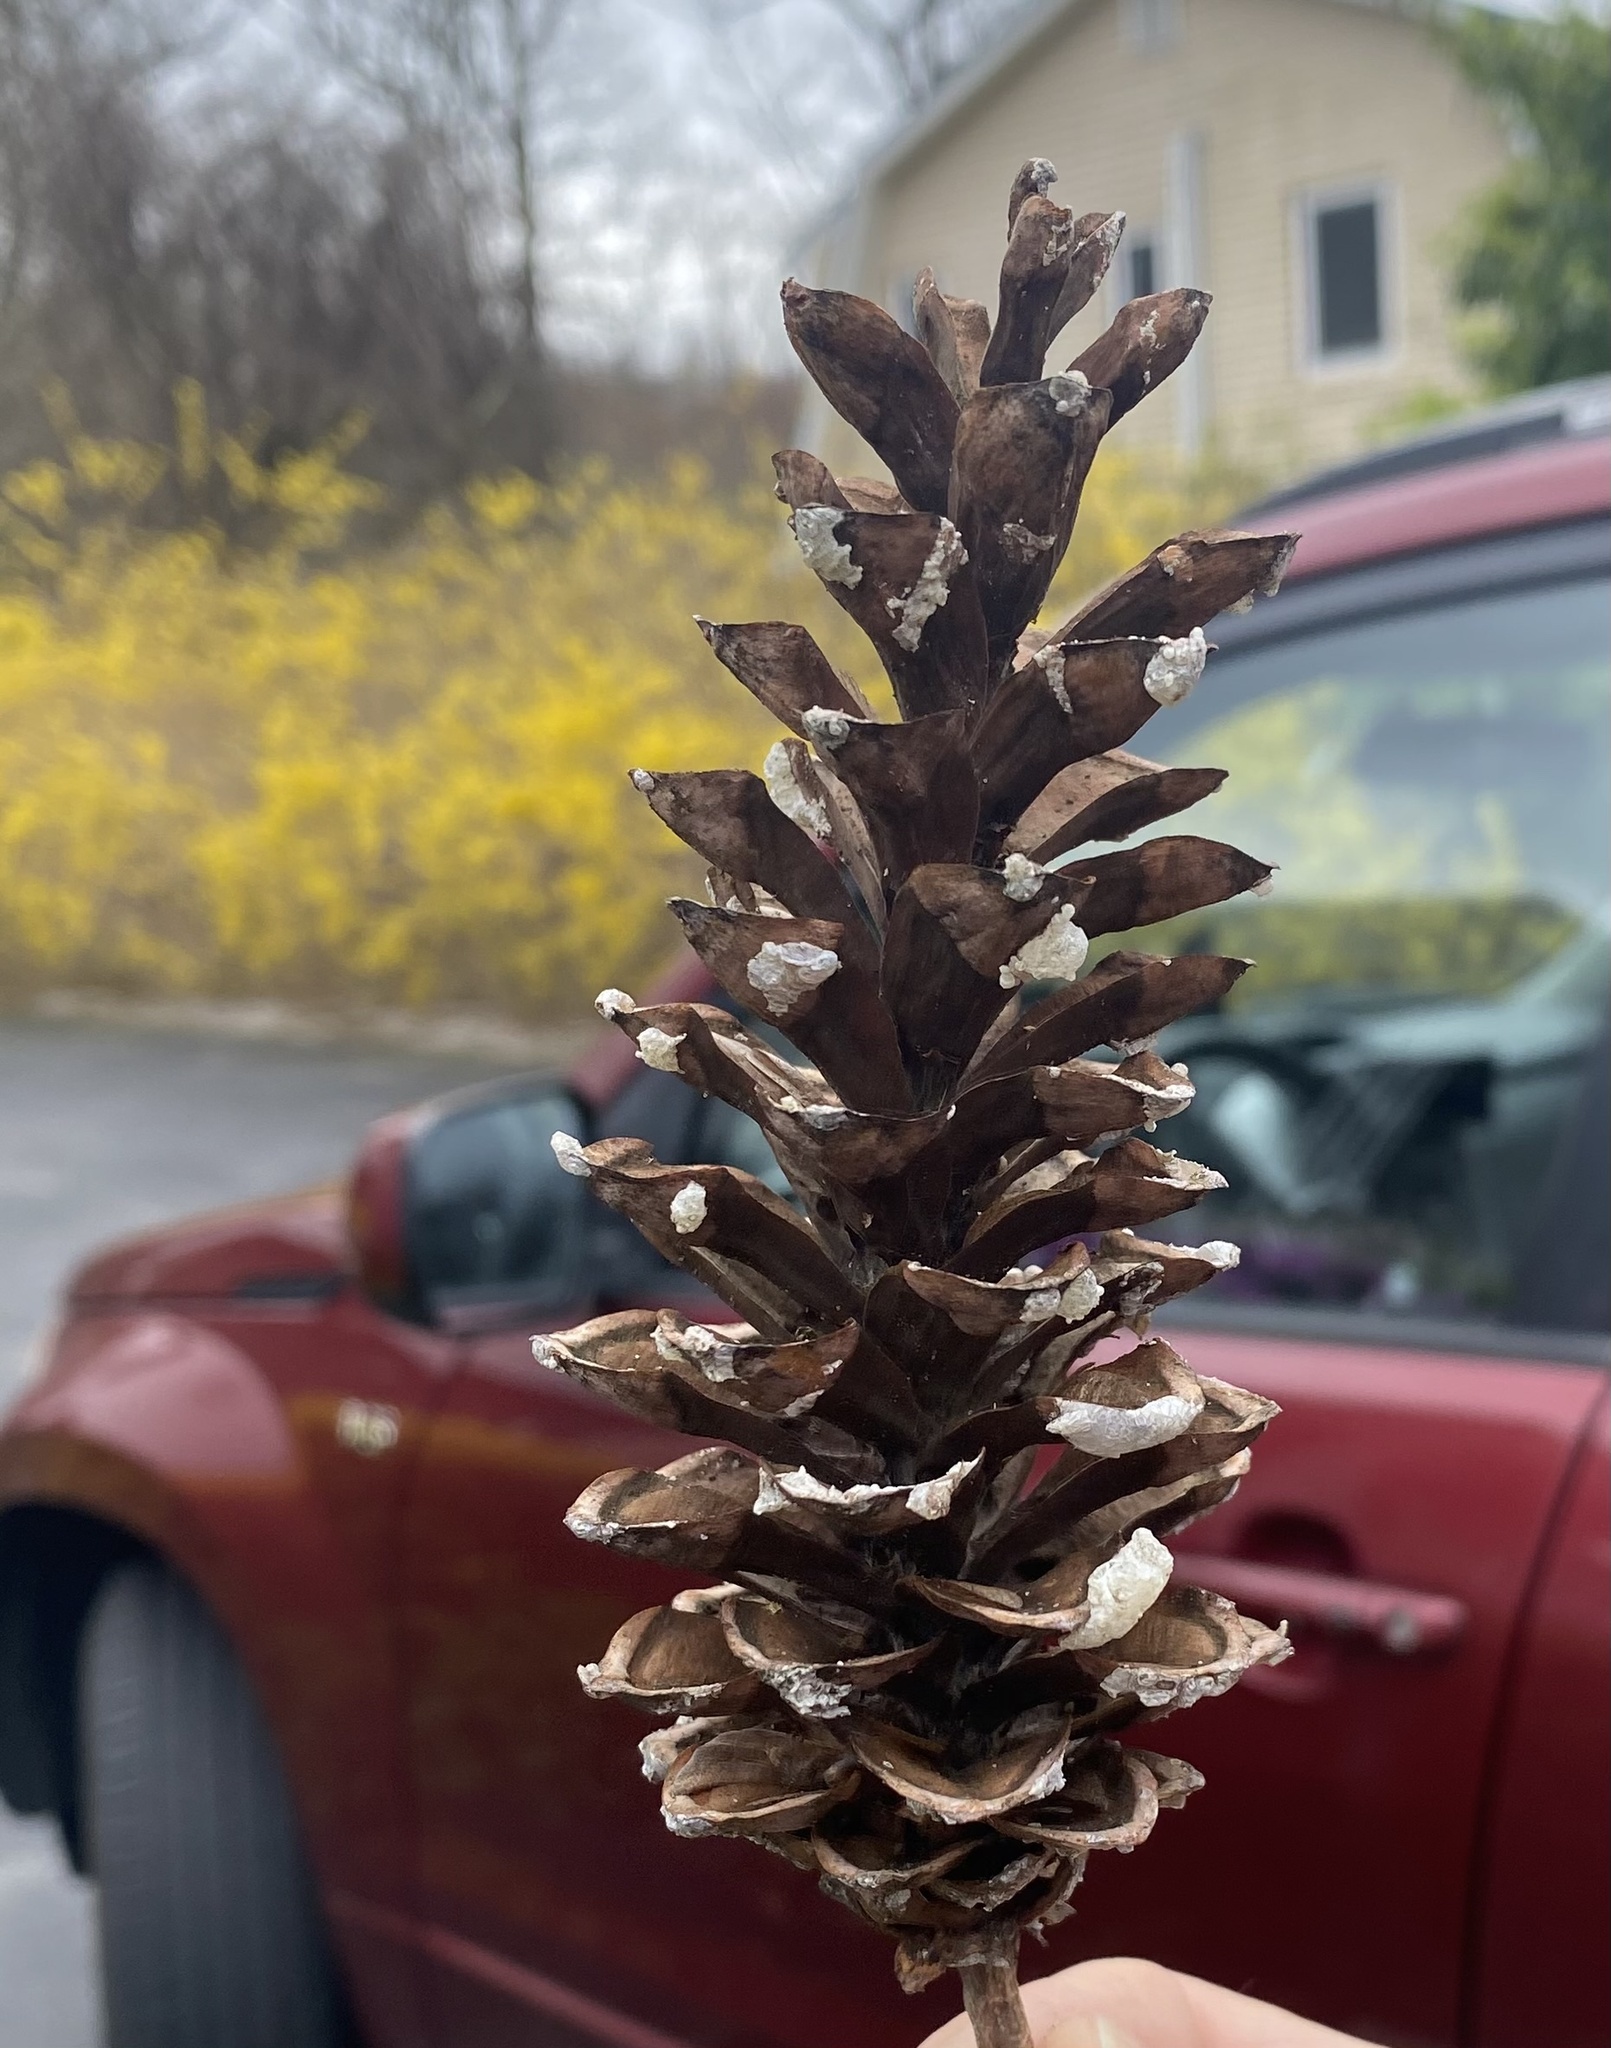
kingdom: Plantae
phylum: Tracheophyta
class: Pinopsida
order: Pinales
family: Pinaceae
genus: Pinus
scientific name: Pinus strobus
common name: Weymouth pine
